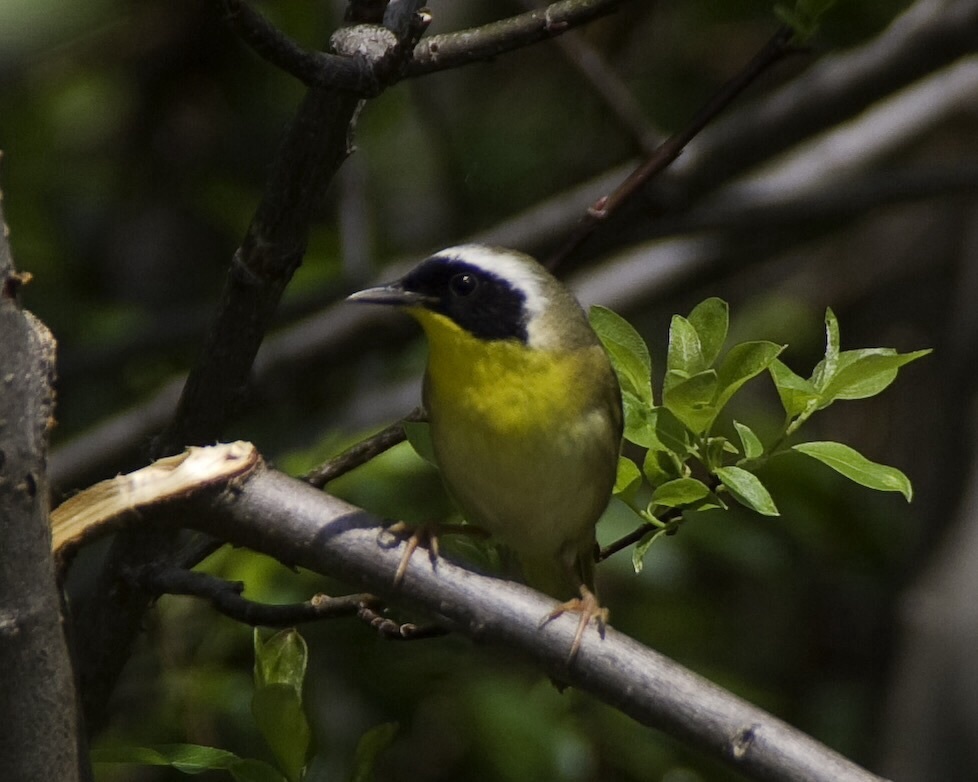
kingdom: Animalia
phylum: Chordata
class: Aves
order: Passeriformes
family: Parulidae
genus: Geothlypis
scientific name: Geothlypis trichas
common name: Common yellowthroat
